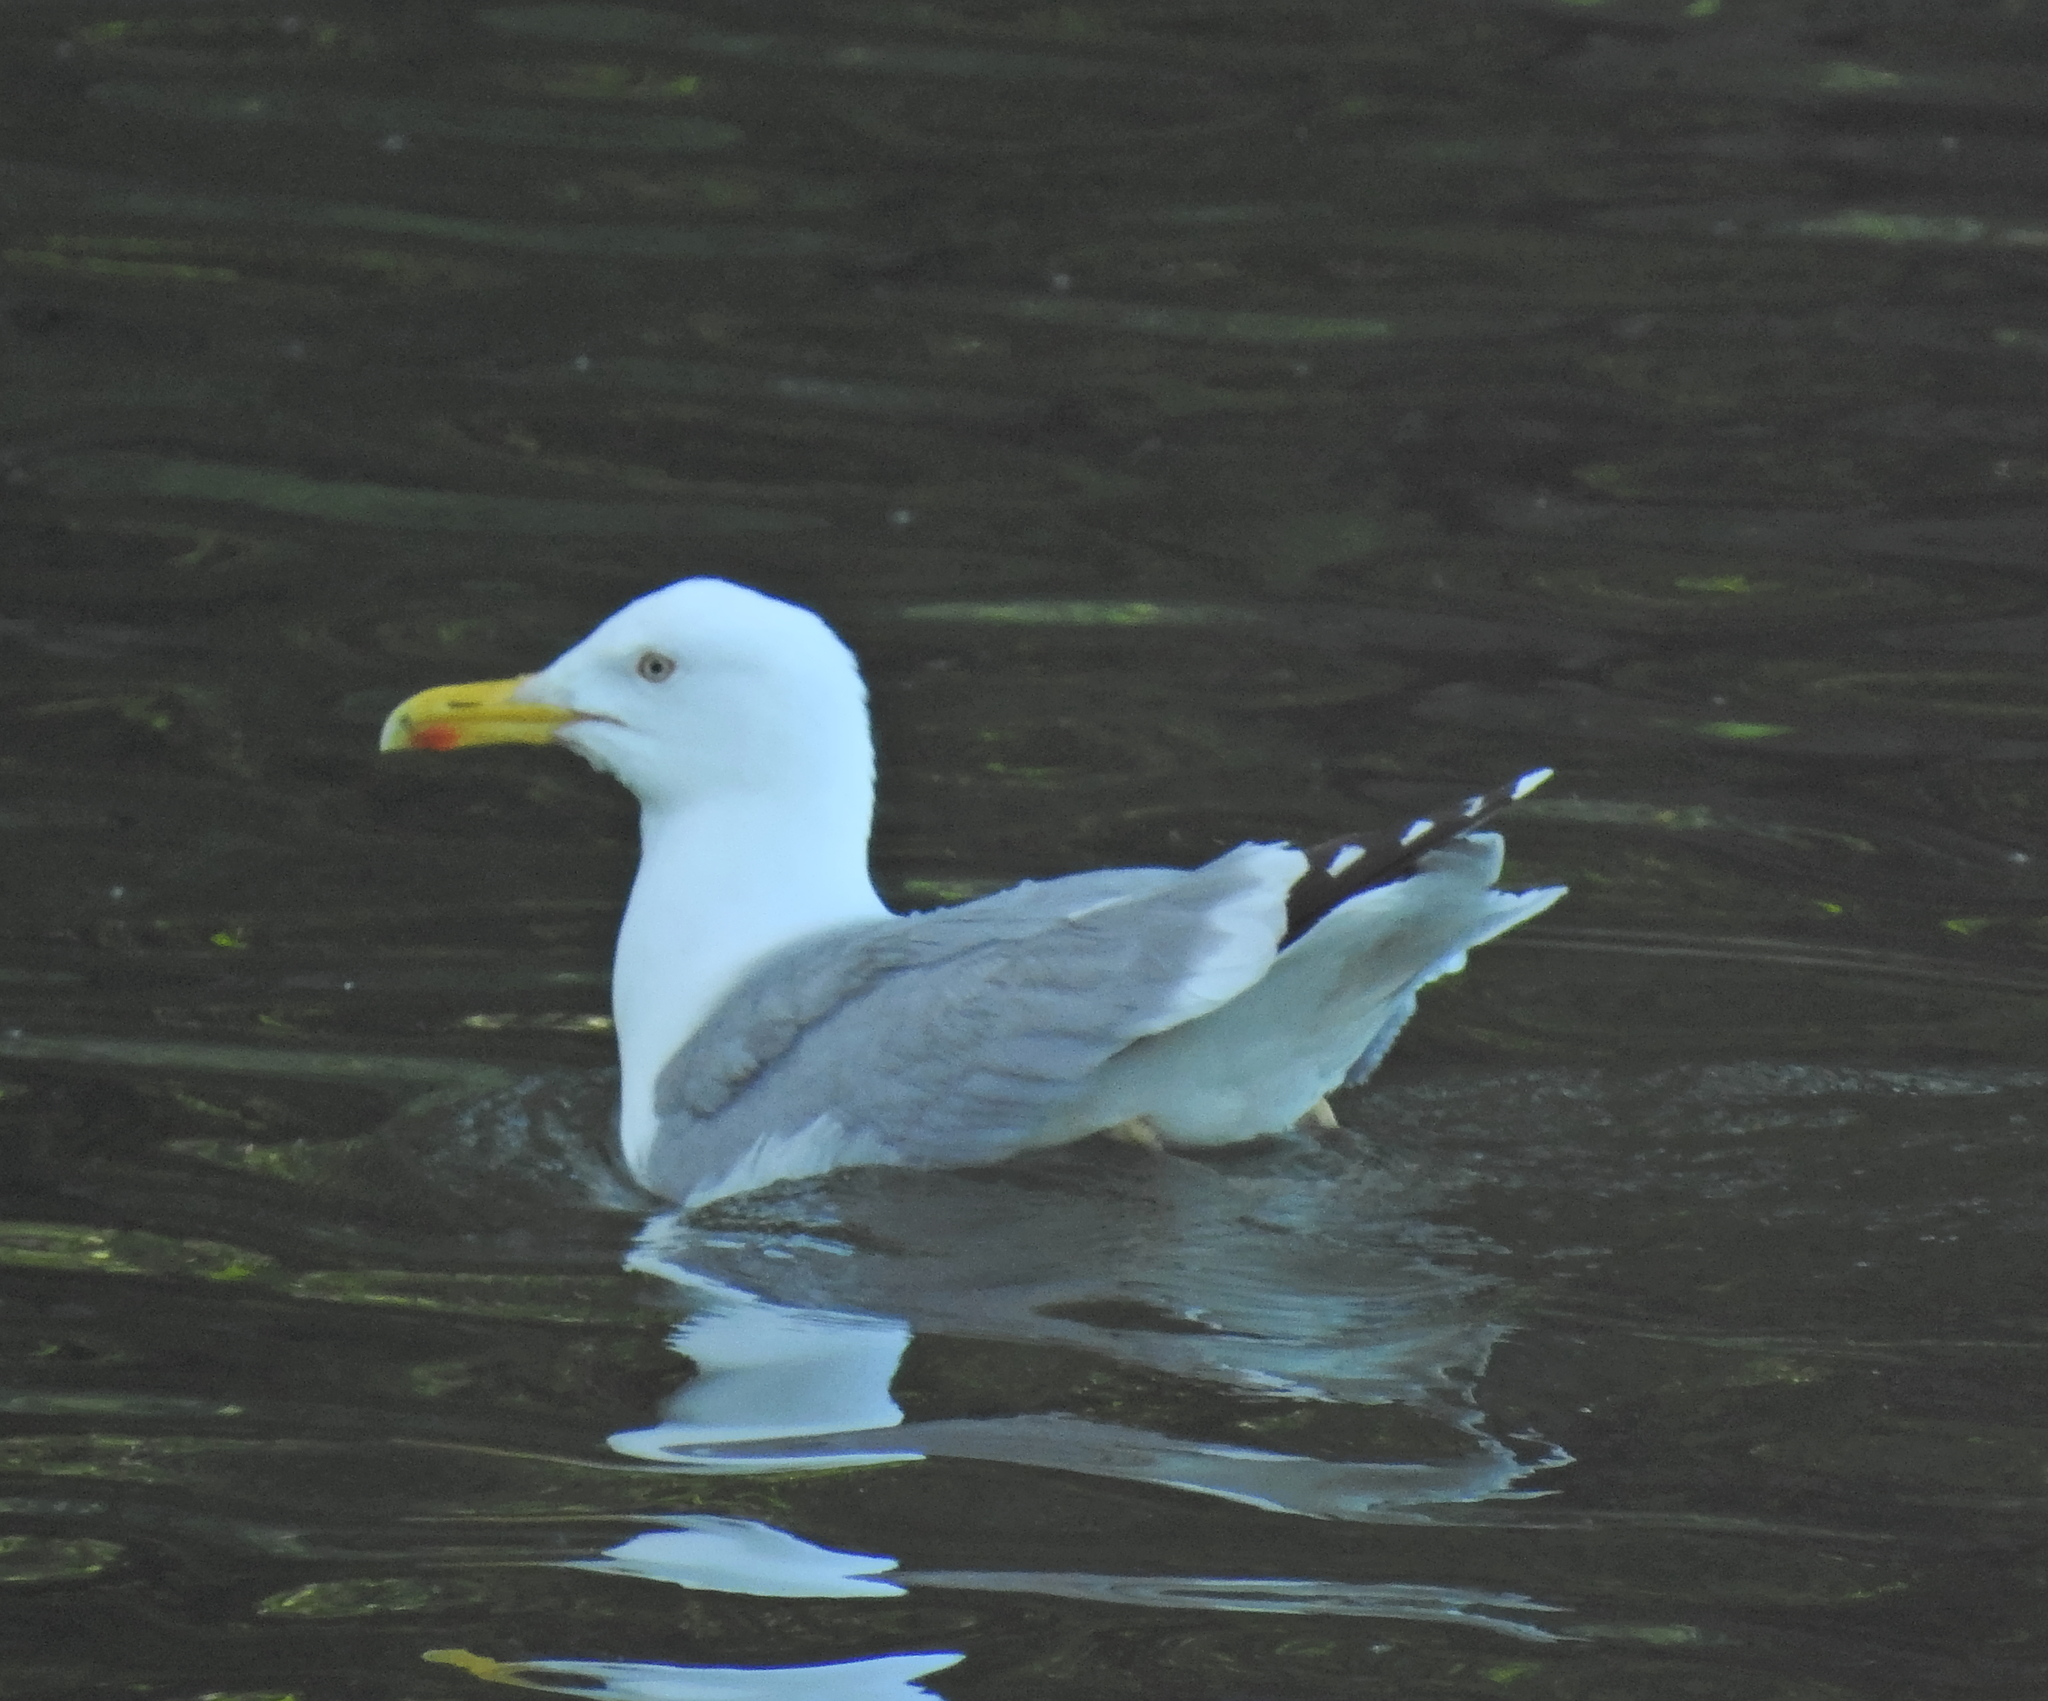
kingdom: Animalia
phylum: Chordata
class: Aves
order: Charadriiformes
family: Laridae
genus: Larus
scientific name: Larus argentatus
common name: Herring gull
